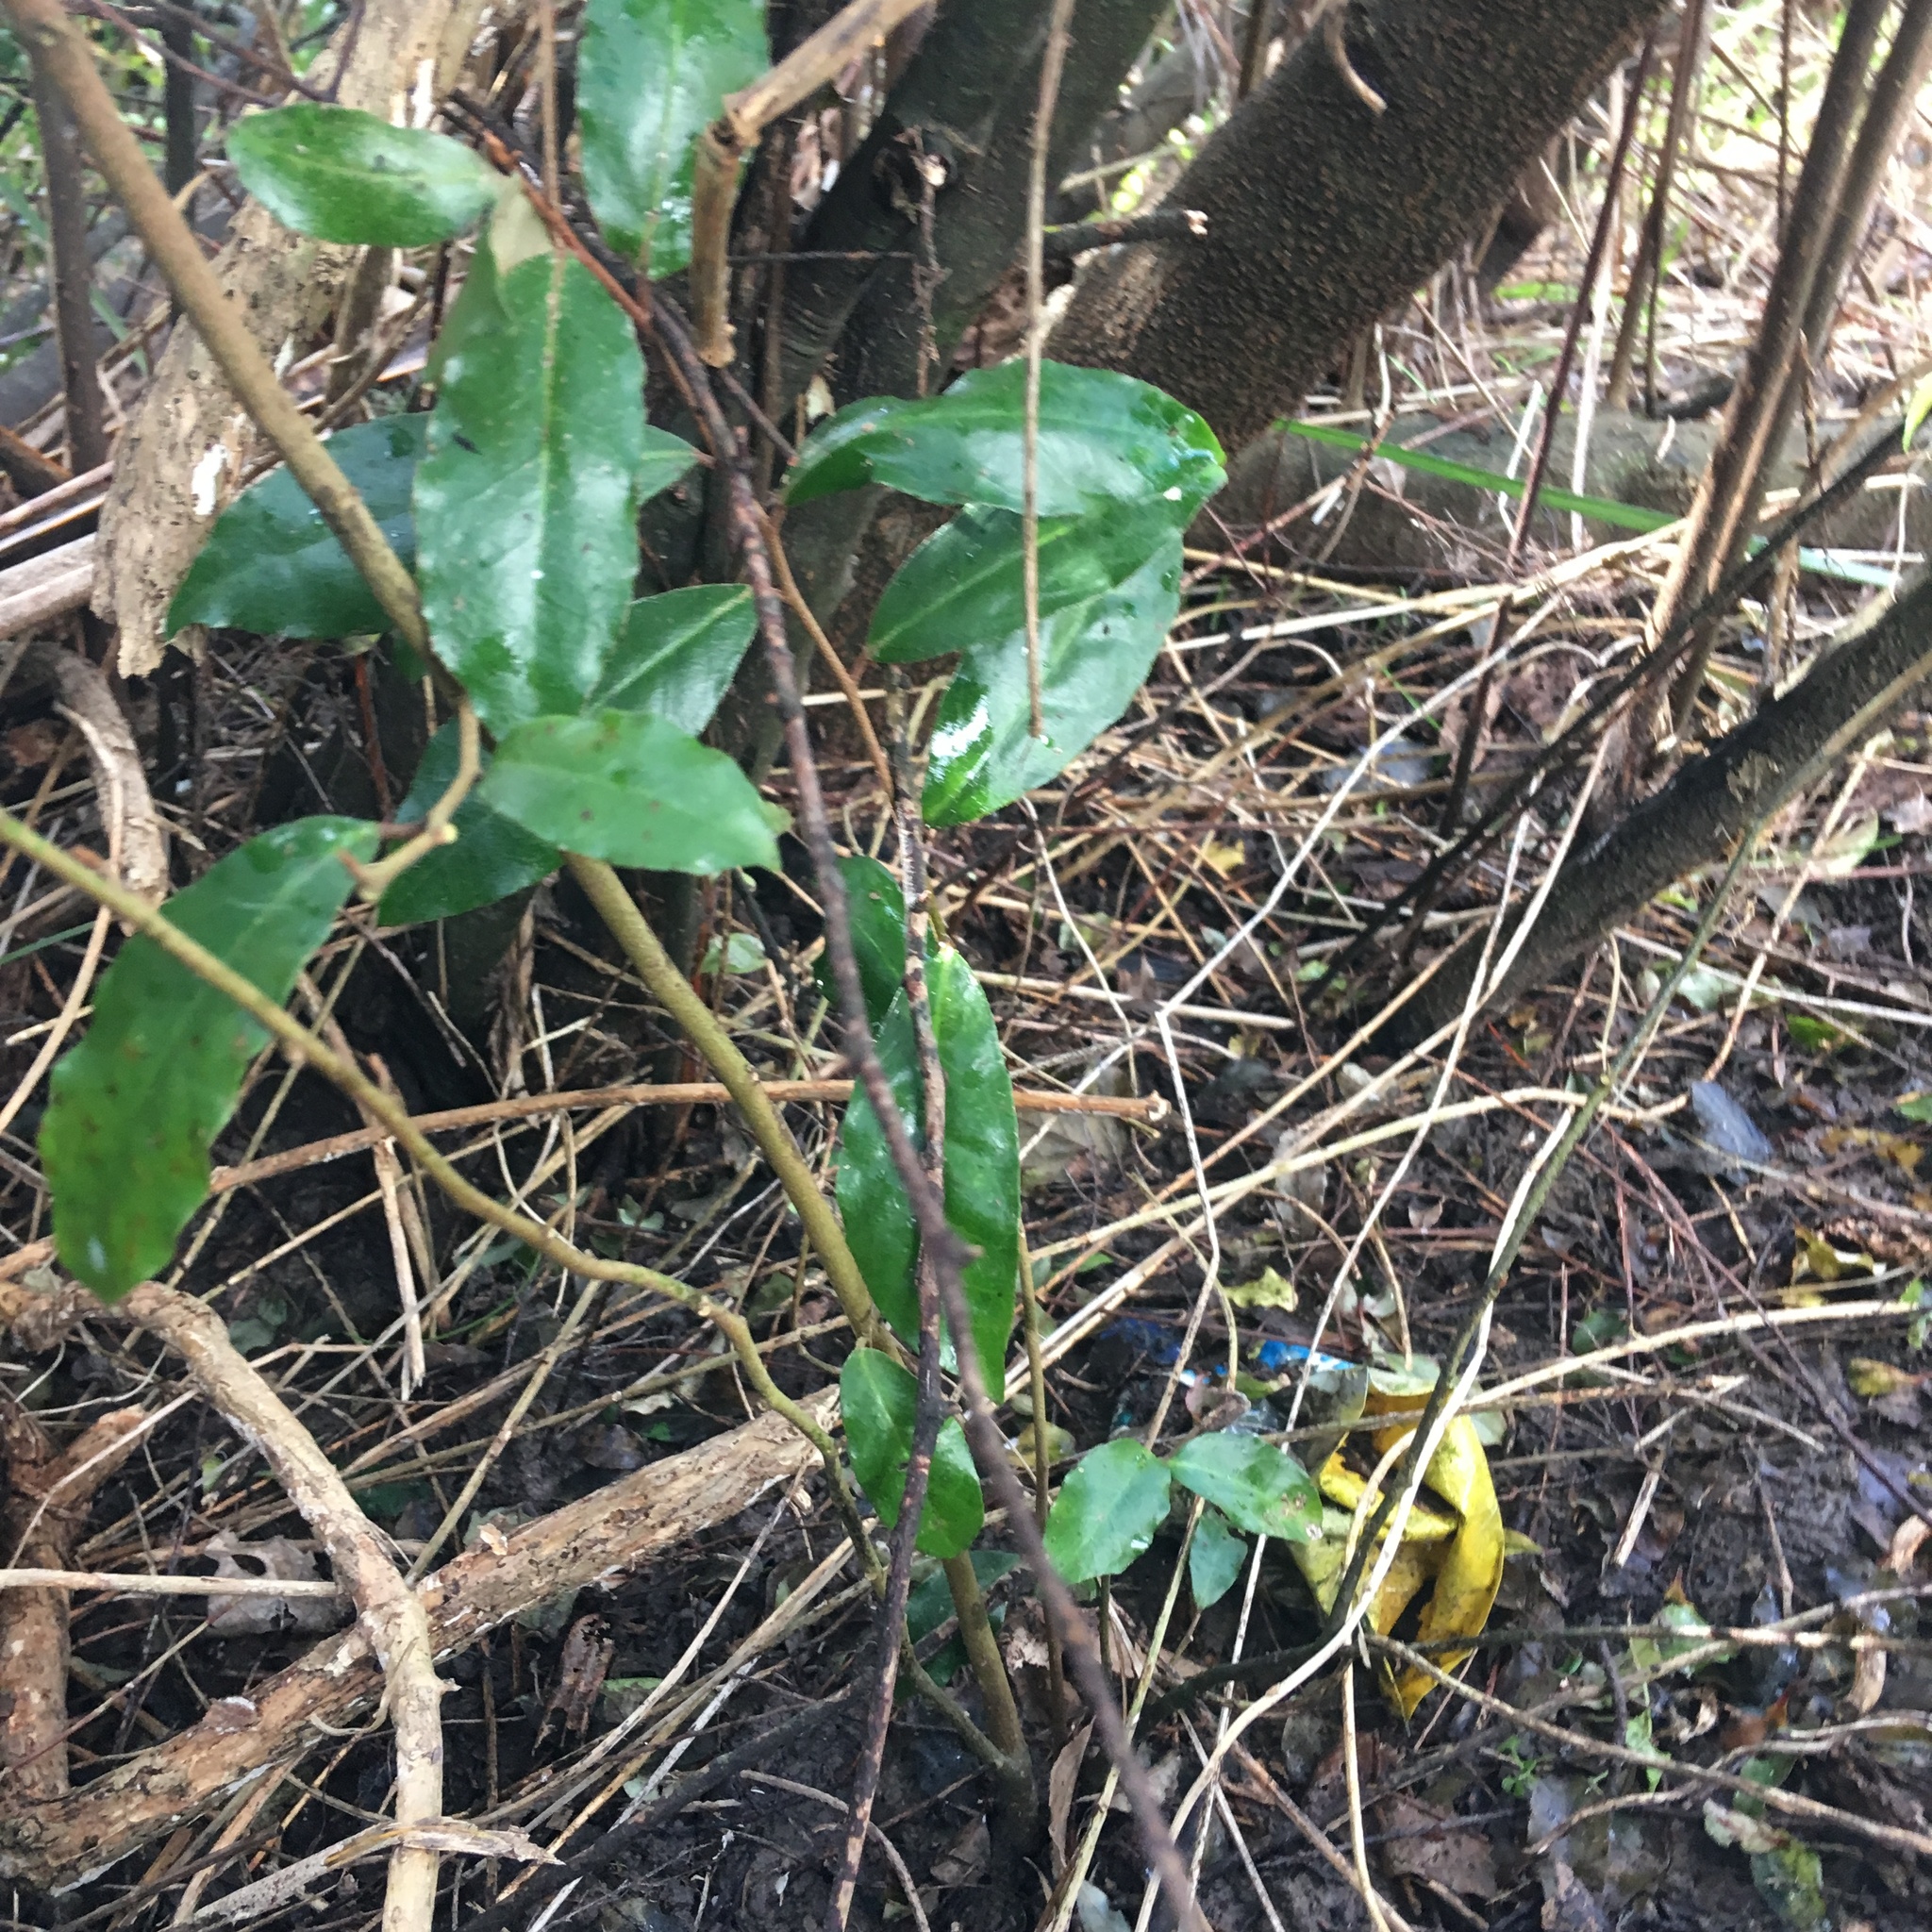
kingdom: Plantae
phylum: Tracheophyta
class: Magnoliopsida
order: Rosales
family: Elaeagnaceae
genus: Elaeagnus
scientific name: Elaeagnus reflexa
